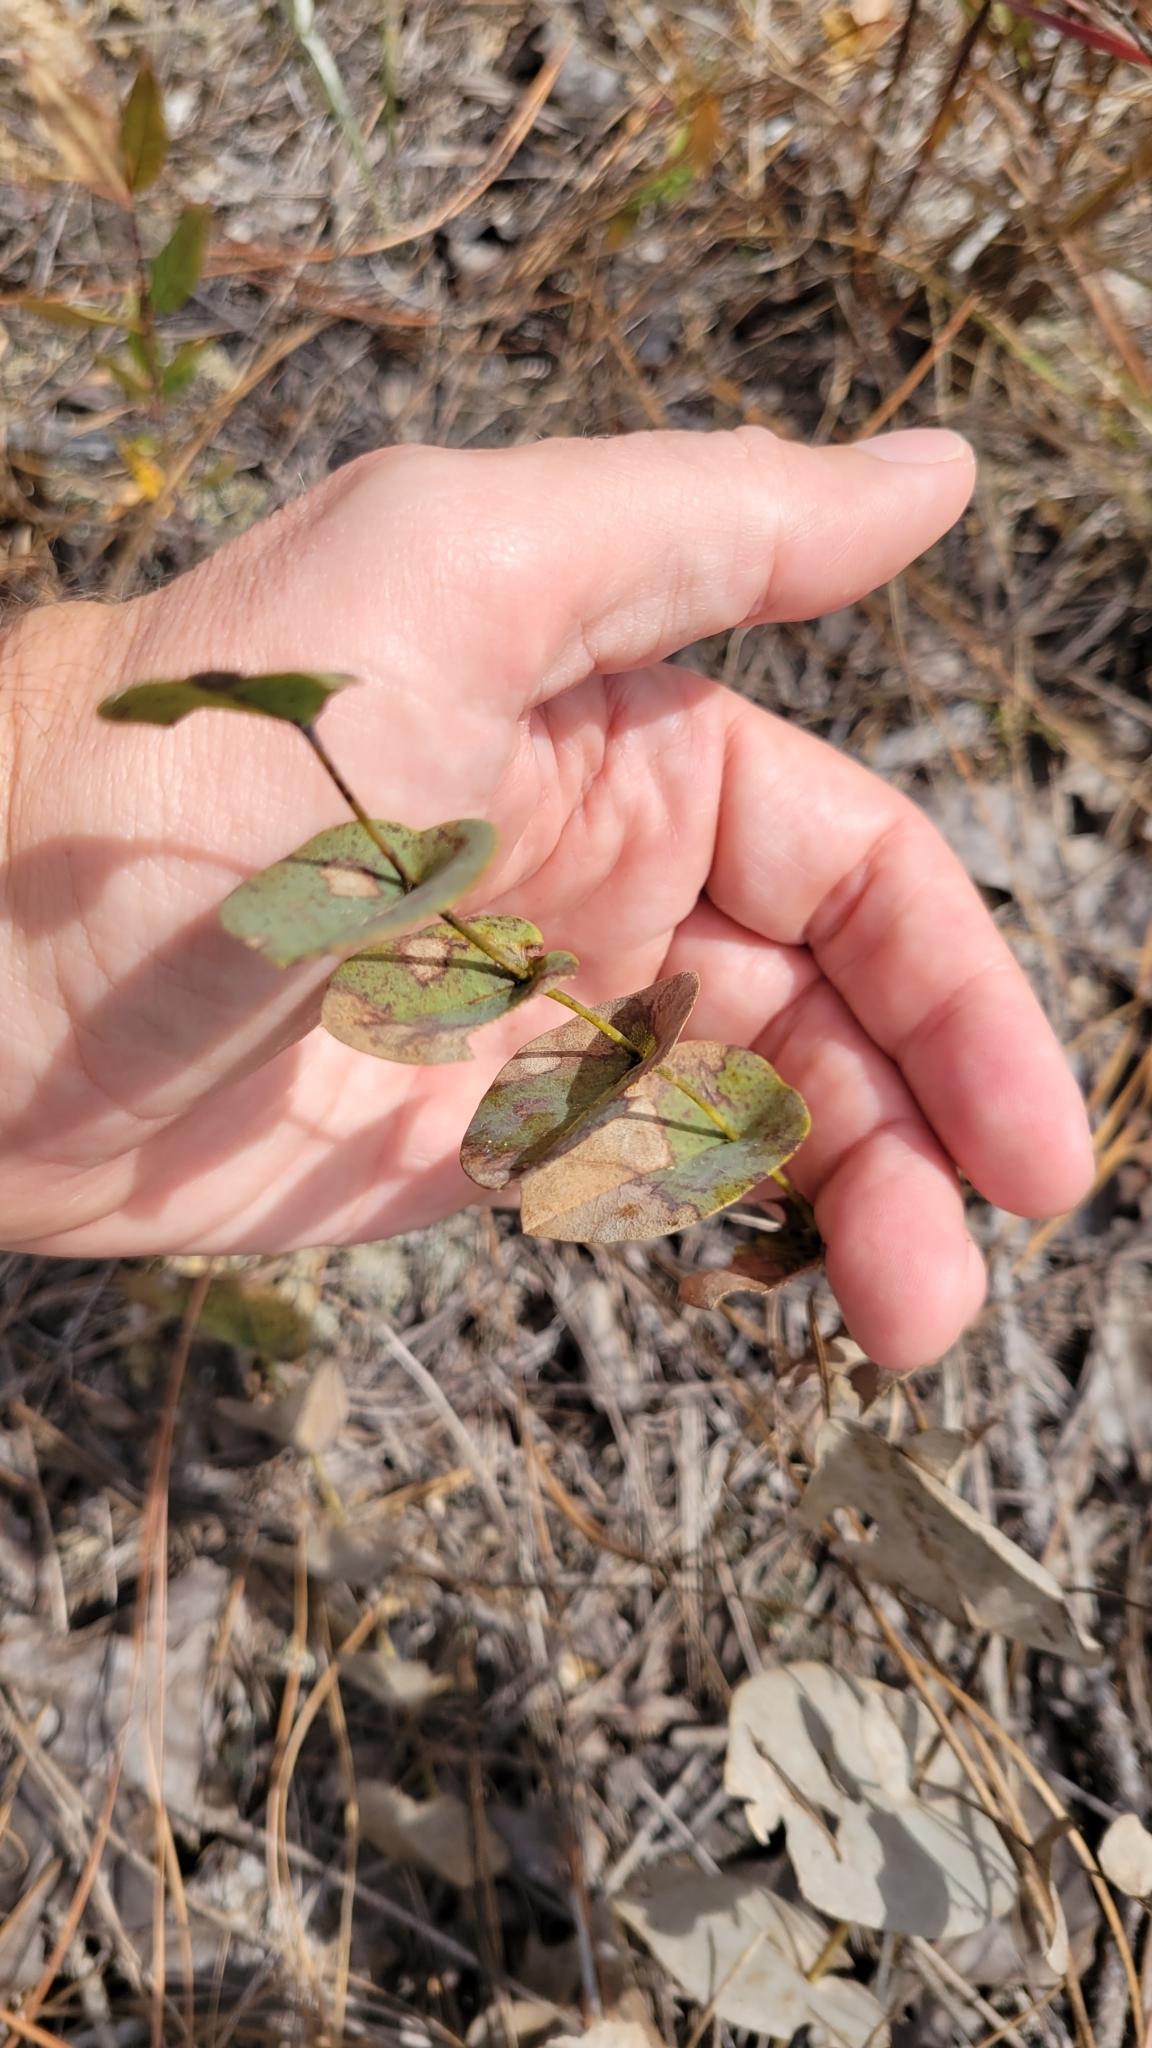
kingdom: Plantae
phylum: Tracheophyta
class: Magnoliopsida
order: Fabales
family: Fabaceae
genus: Baptisia
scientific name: Baptisia perfoliata
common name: Catbells
